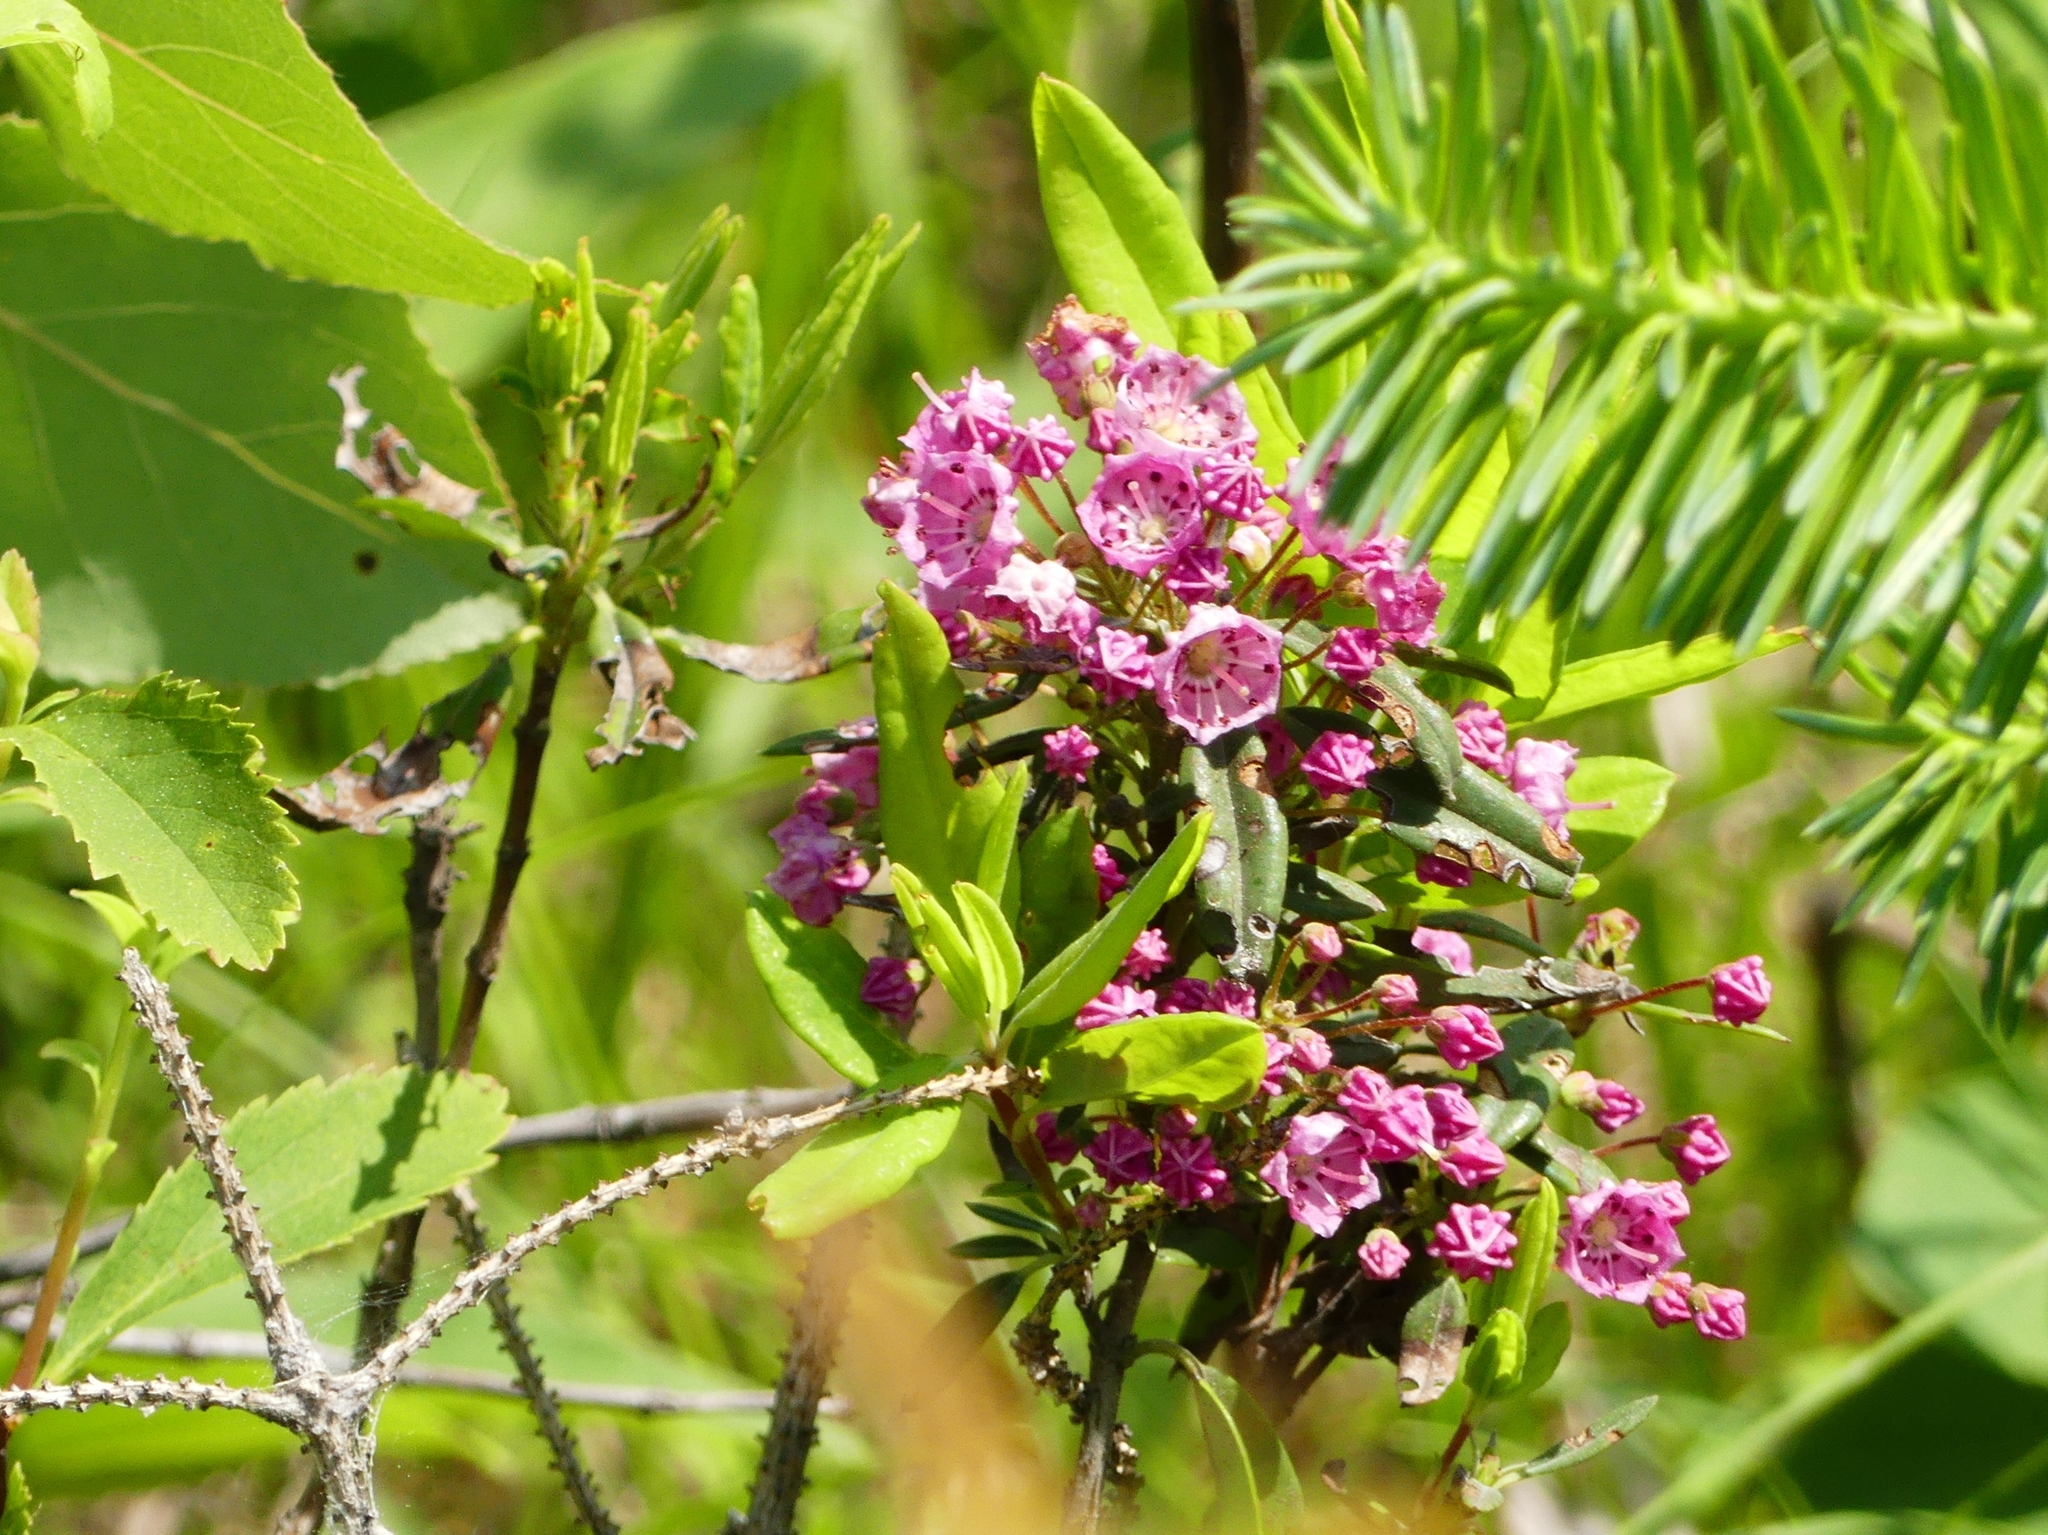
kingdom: Plantae
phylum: Tracheophyta
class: Magnoliopsida
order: Ericales
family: Ericaceae
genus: Kalmia
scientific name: Kalmia angustifolia
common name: Sheep-laurel
